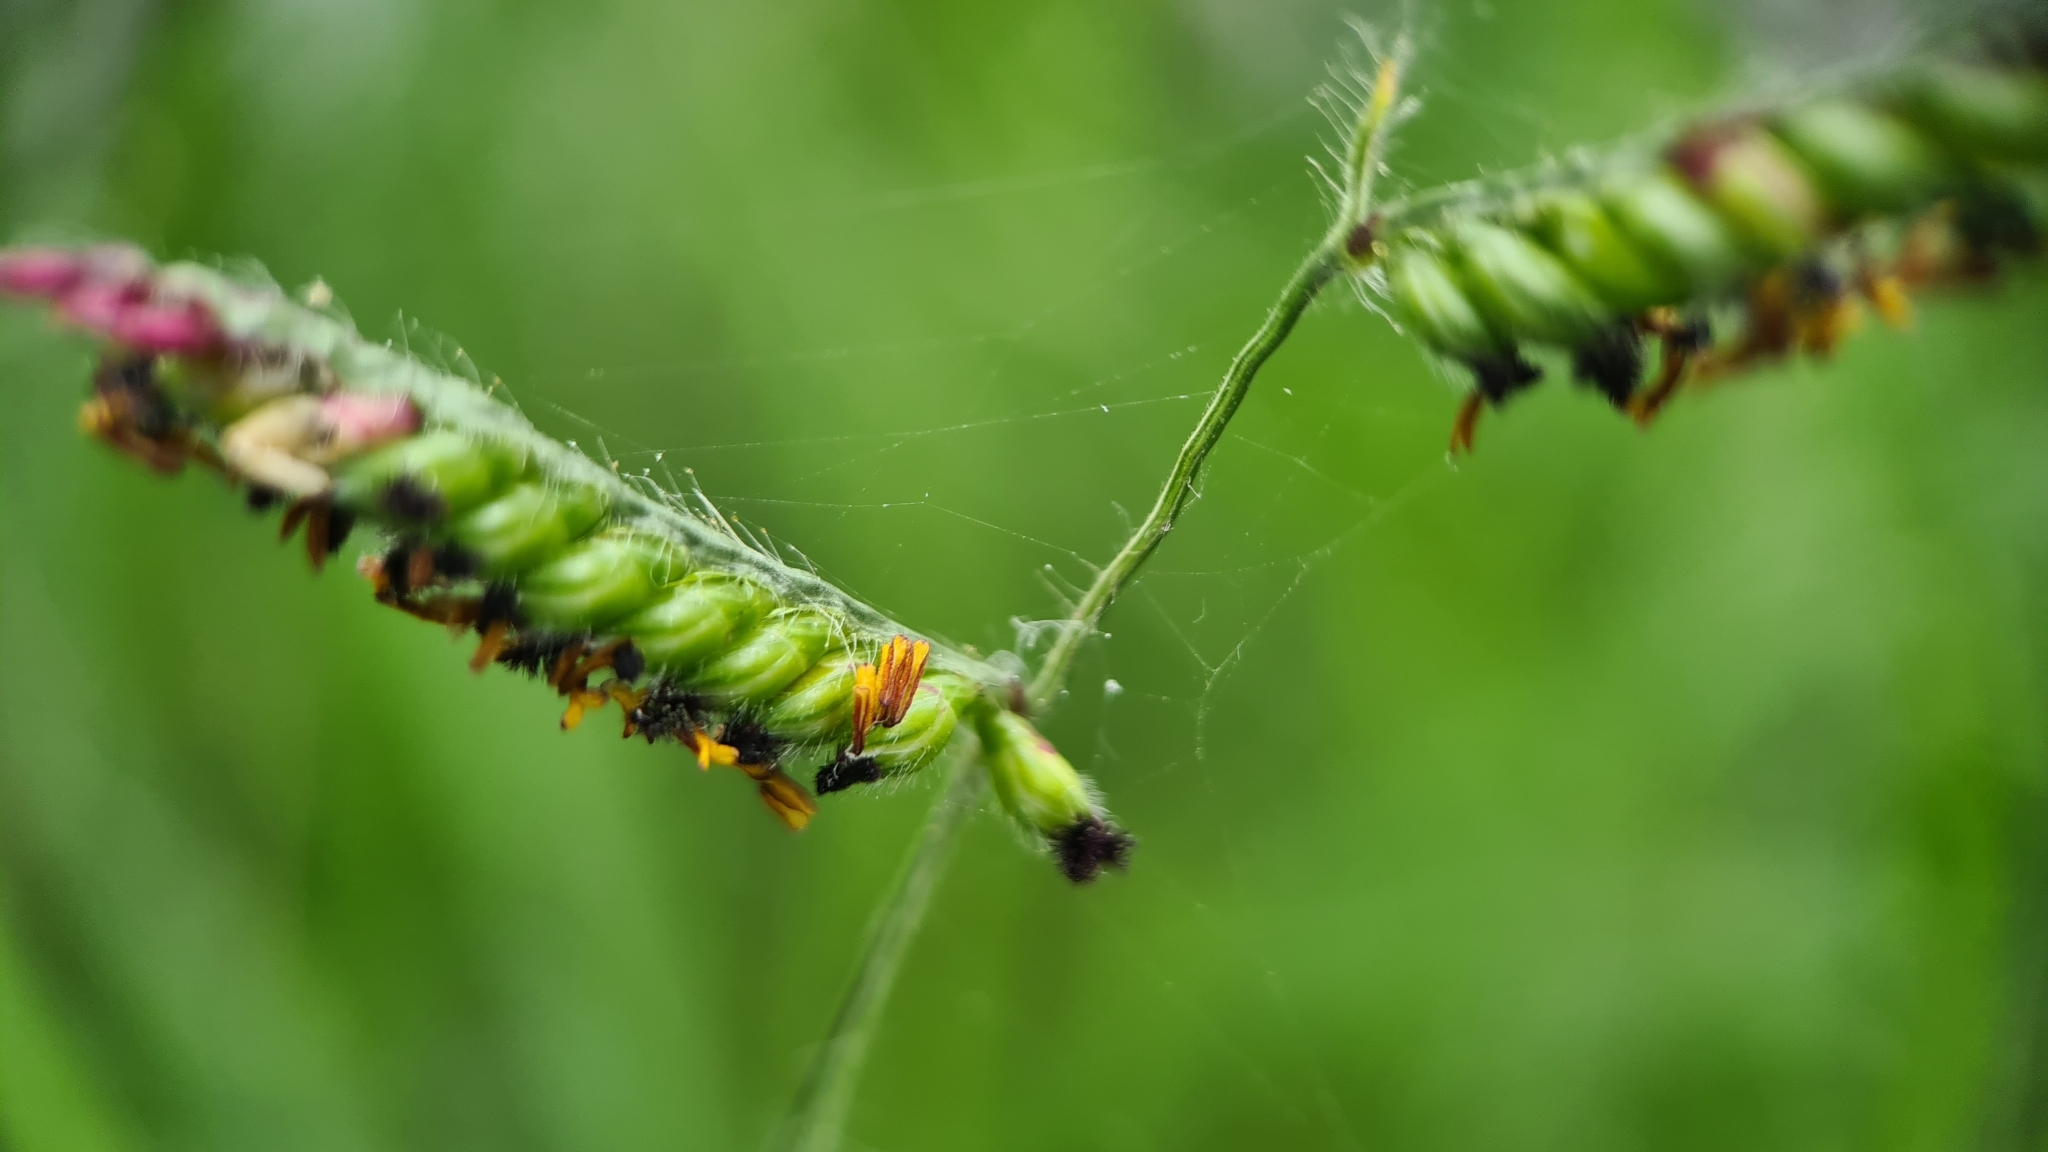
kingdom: Plantae
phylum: Tracheophyta
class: Liliopsida
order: Poales
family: Poaceae
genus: Paspalum
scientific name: Paspalum urvillei
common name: Vasey's grass
